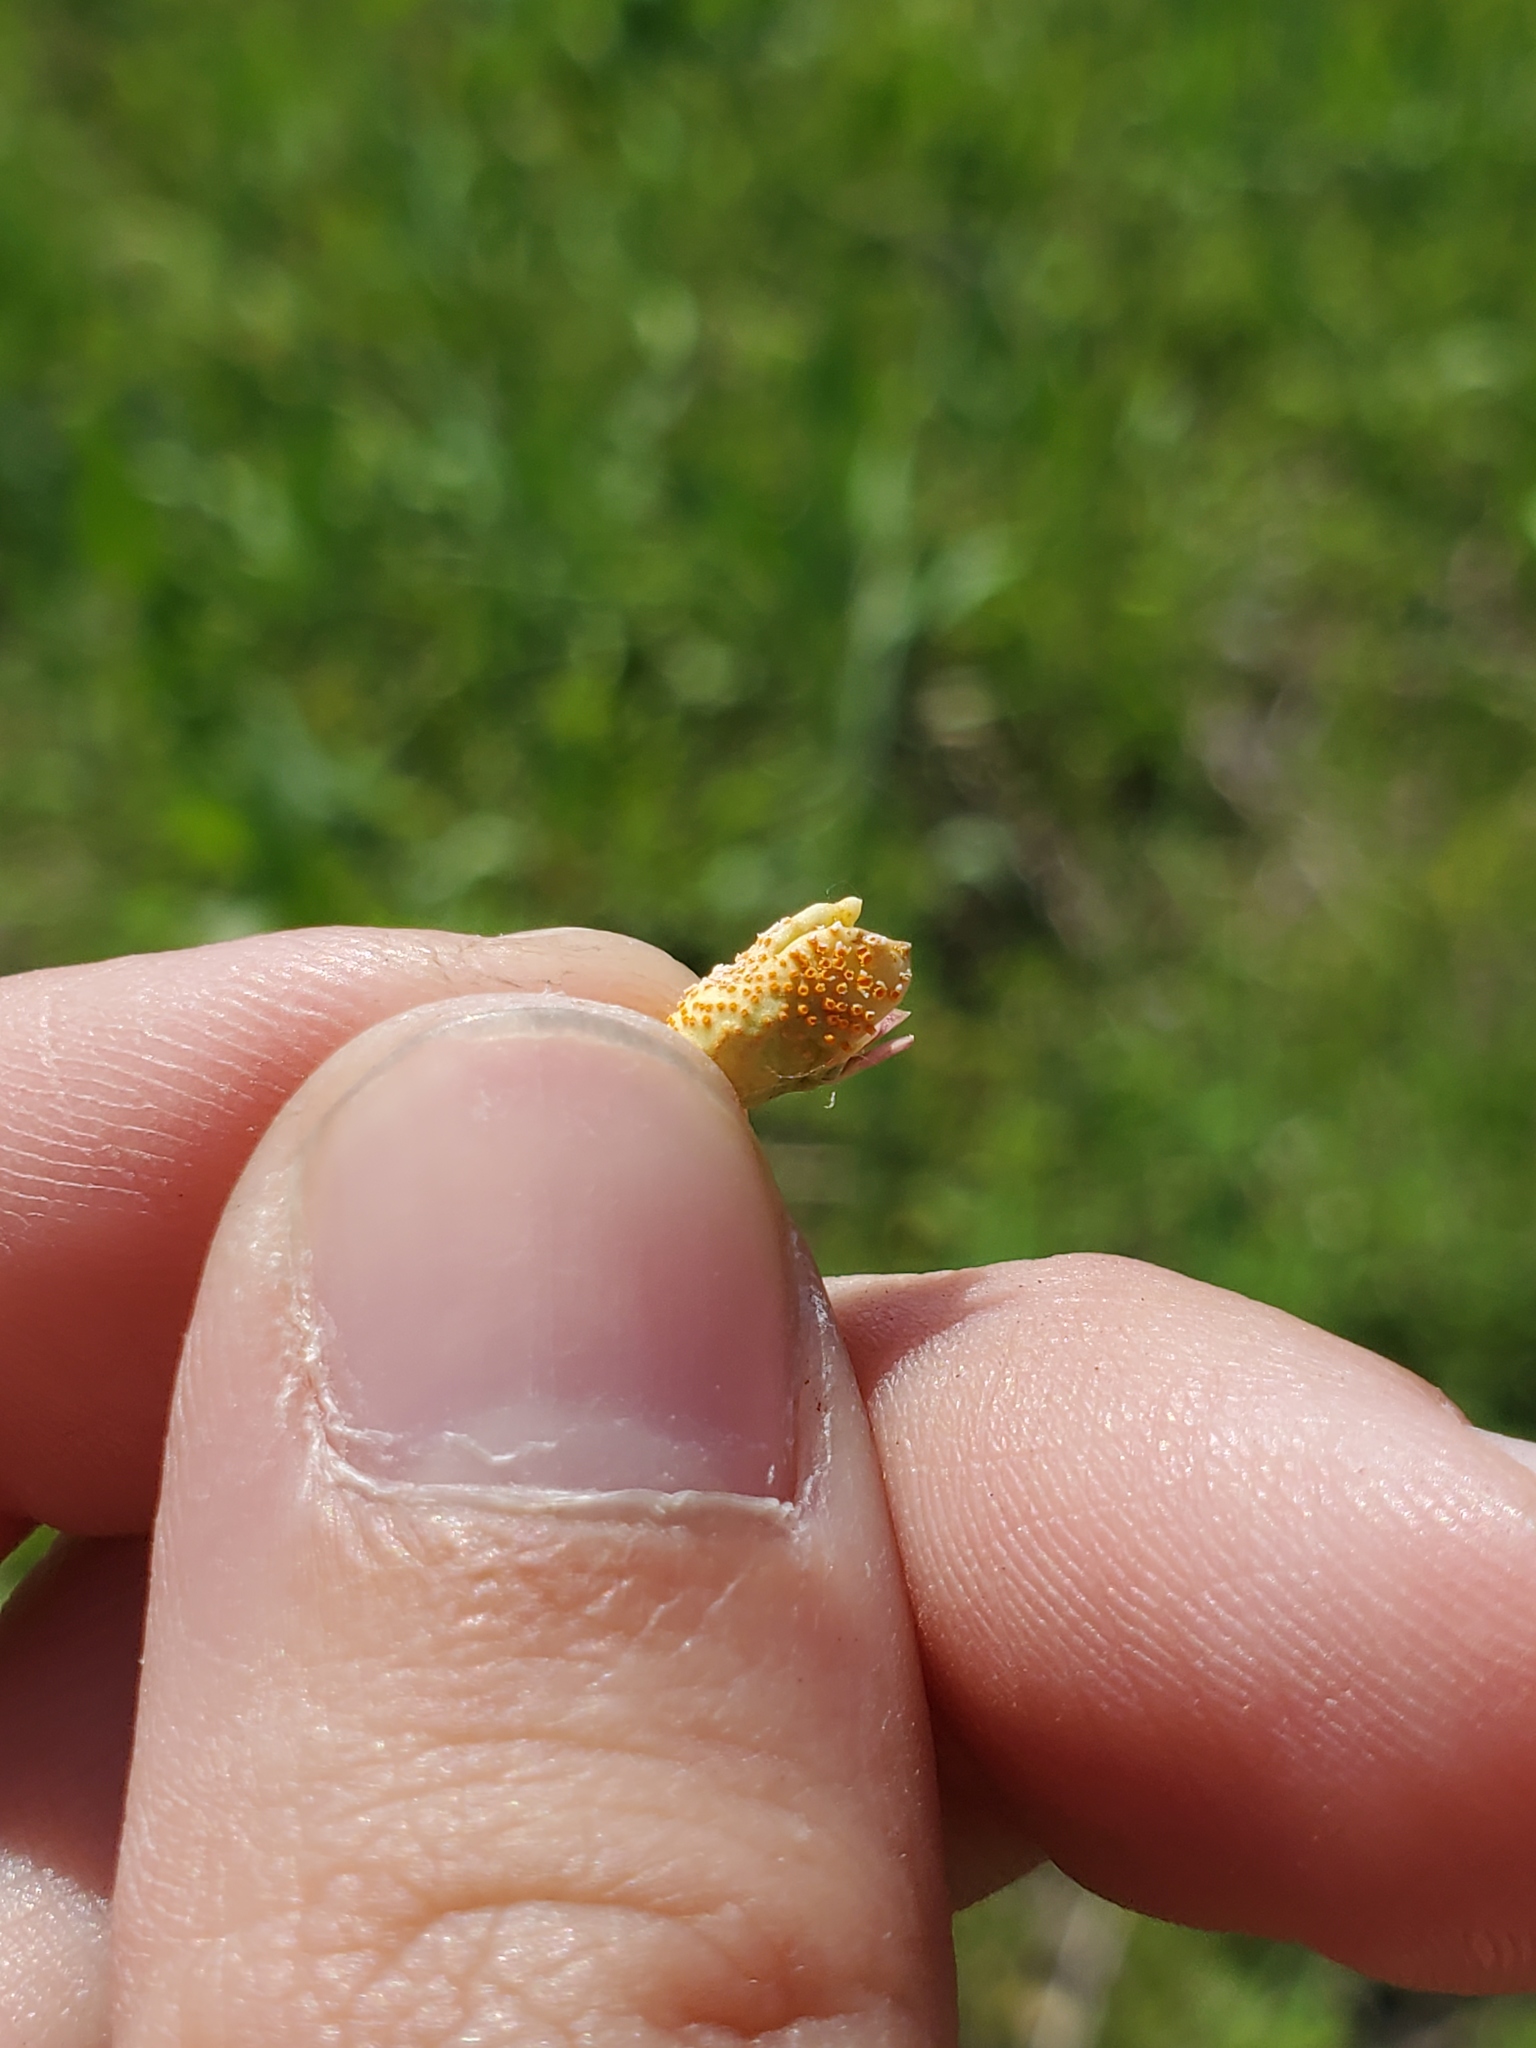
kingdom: Fungi
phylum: Basidiomycota
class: Pucciniomycetes
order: Pucciniales
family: Pucciniaceae
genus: Puccinia
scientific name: Puccinia andropogonis
